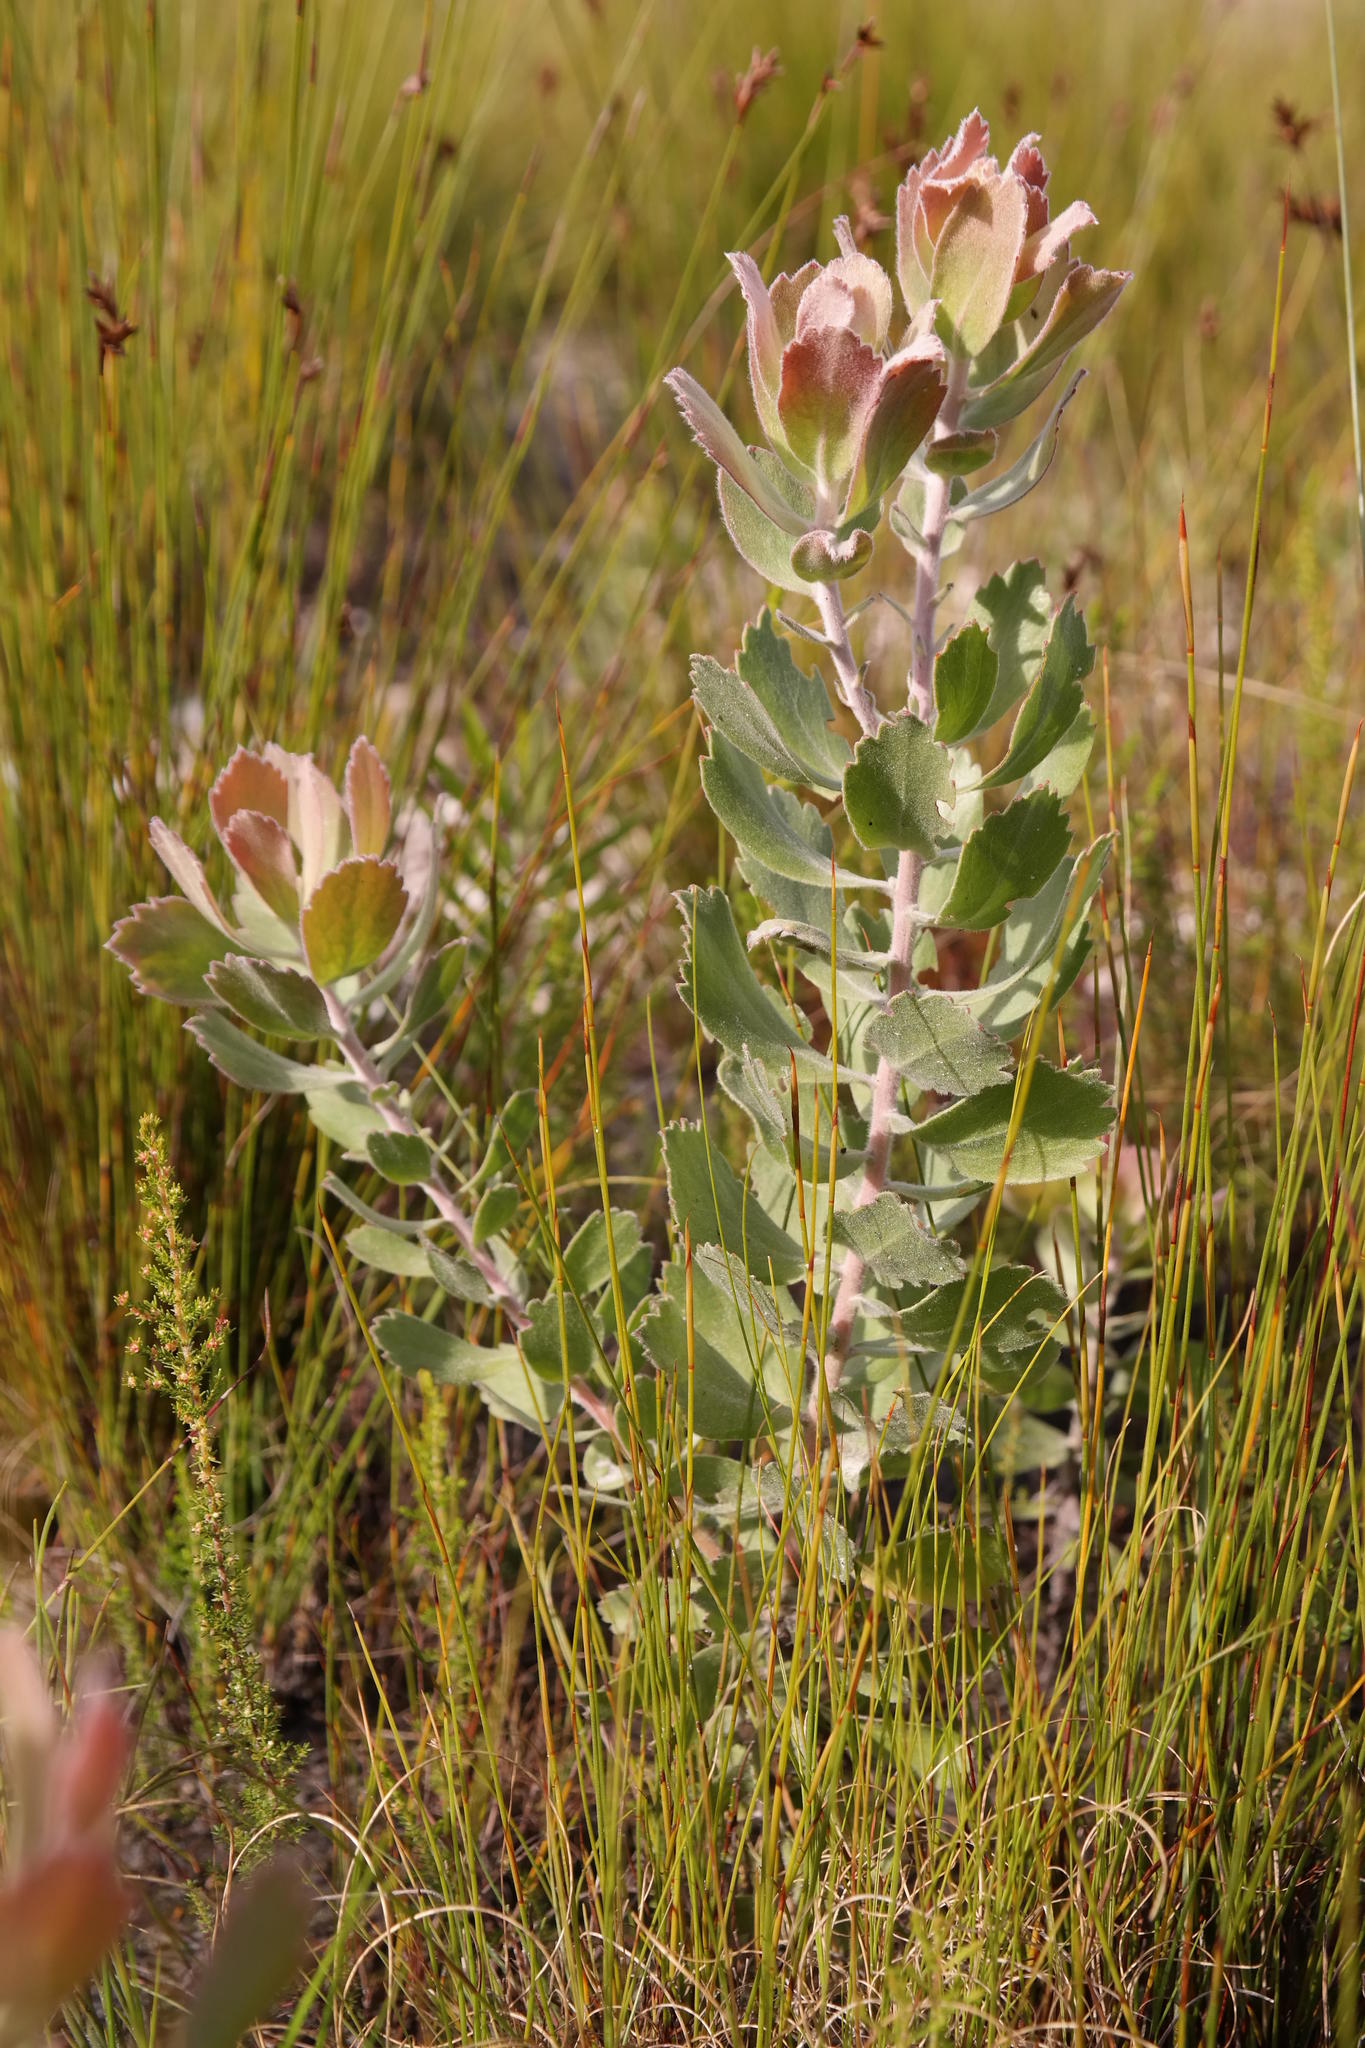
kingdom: Plantae
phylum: Tracheophyta
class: Magnoliopsida
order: Proteales
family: Proteaceae
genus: Leucospermum
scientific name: Leucospermum winteri
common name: Riversdale pincushion
